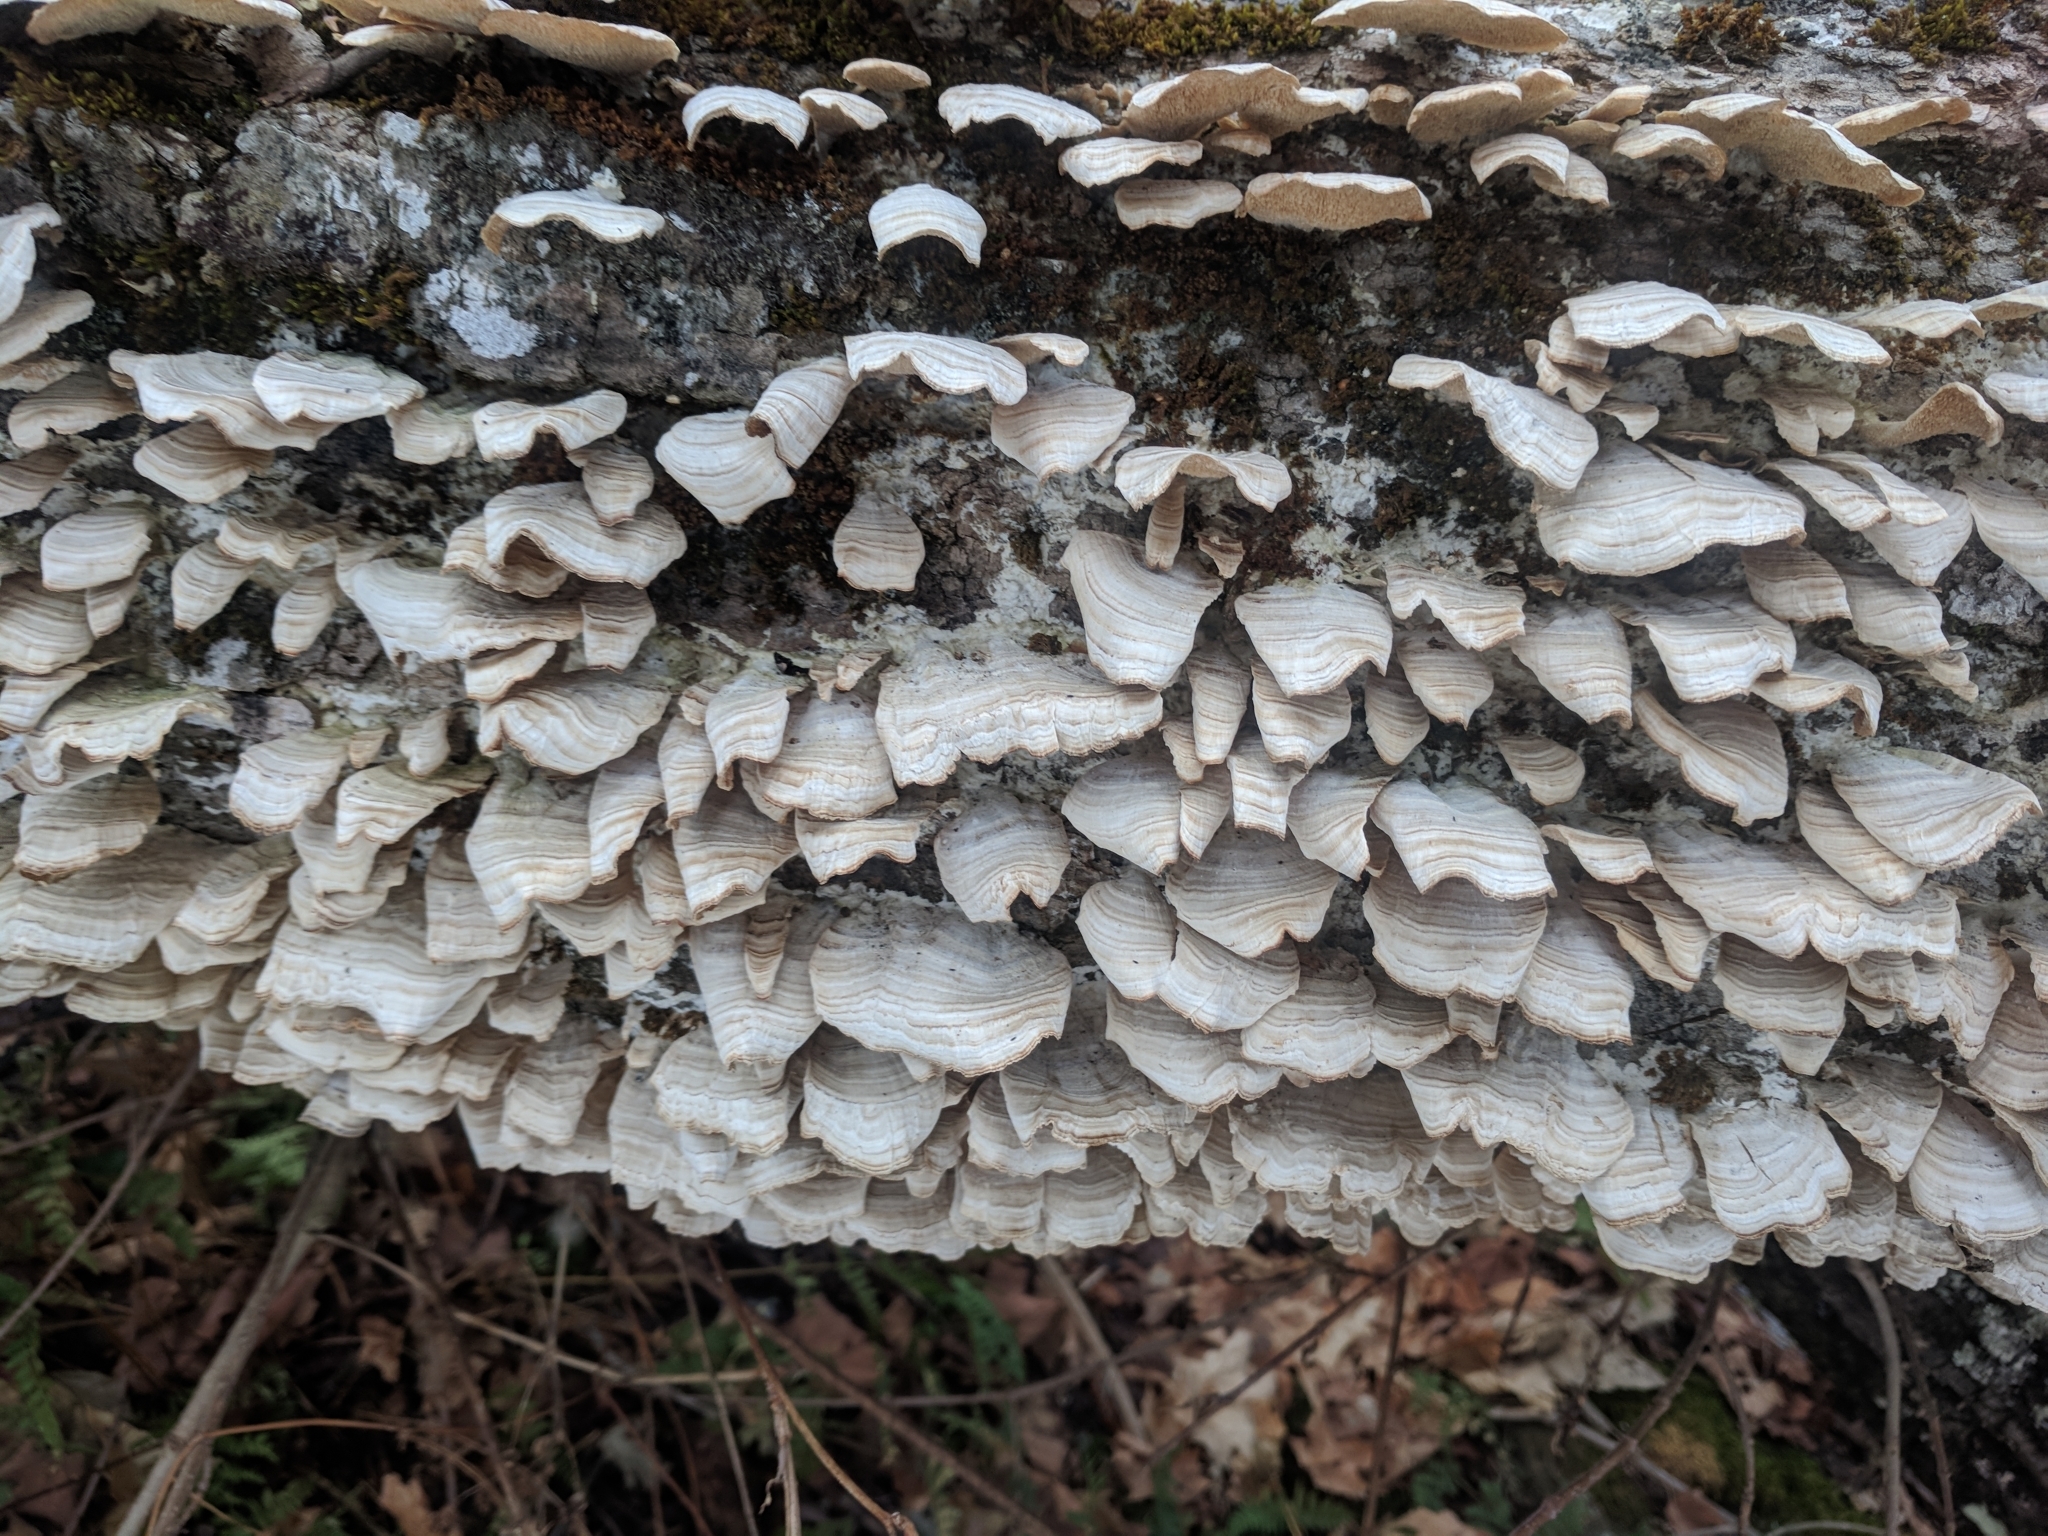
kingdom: Fungi
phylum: Basidiomycota
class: Agaricomycetes
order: Hymenochaetales
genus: Trichaptum
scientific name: Trichaptum biforme
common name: Violet-toothed polypore
